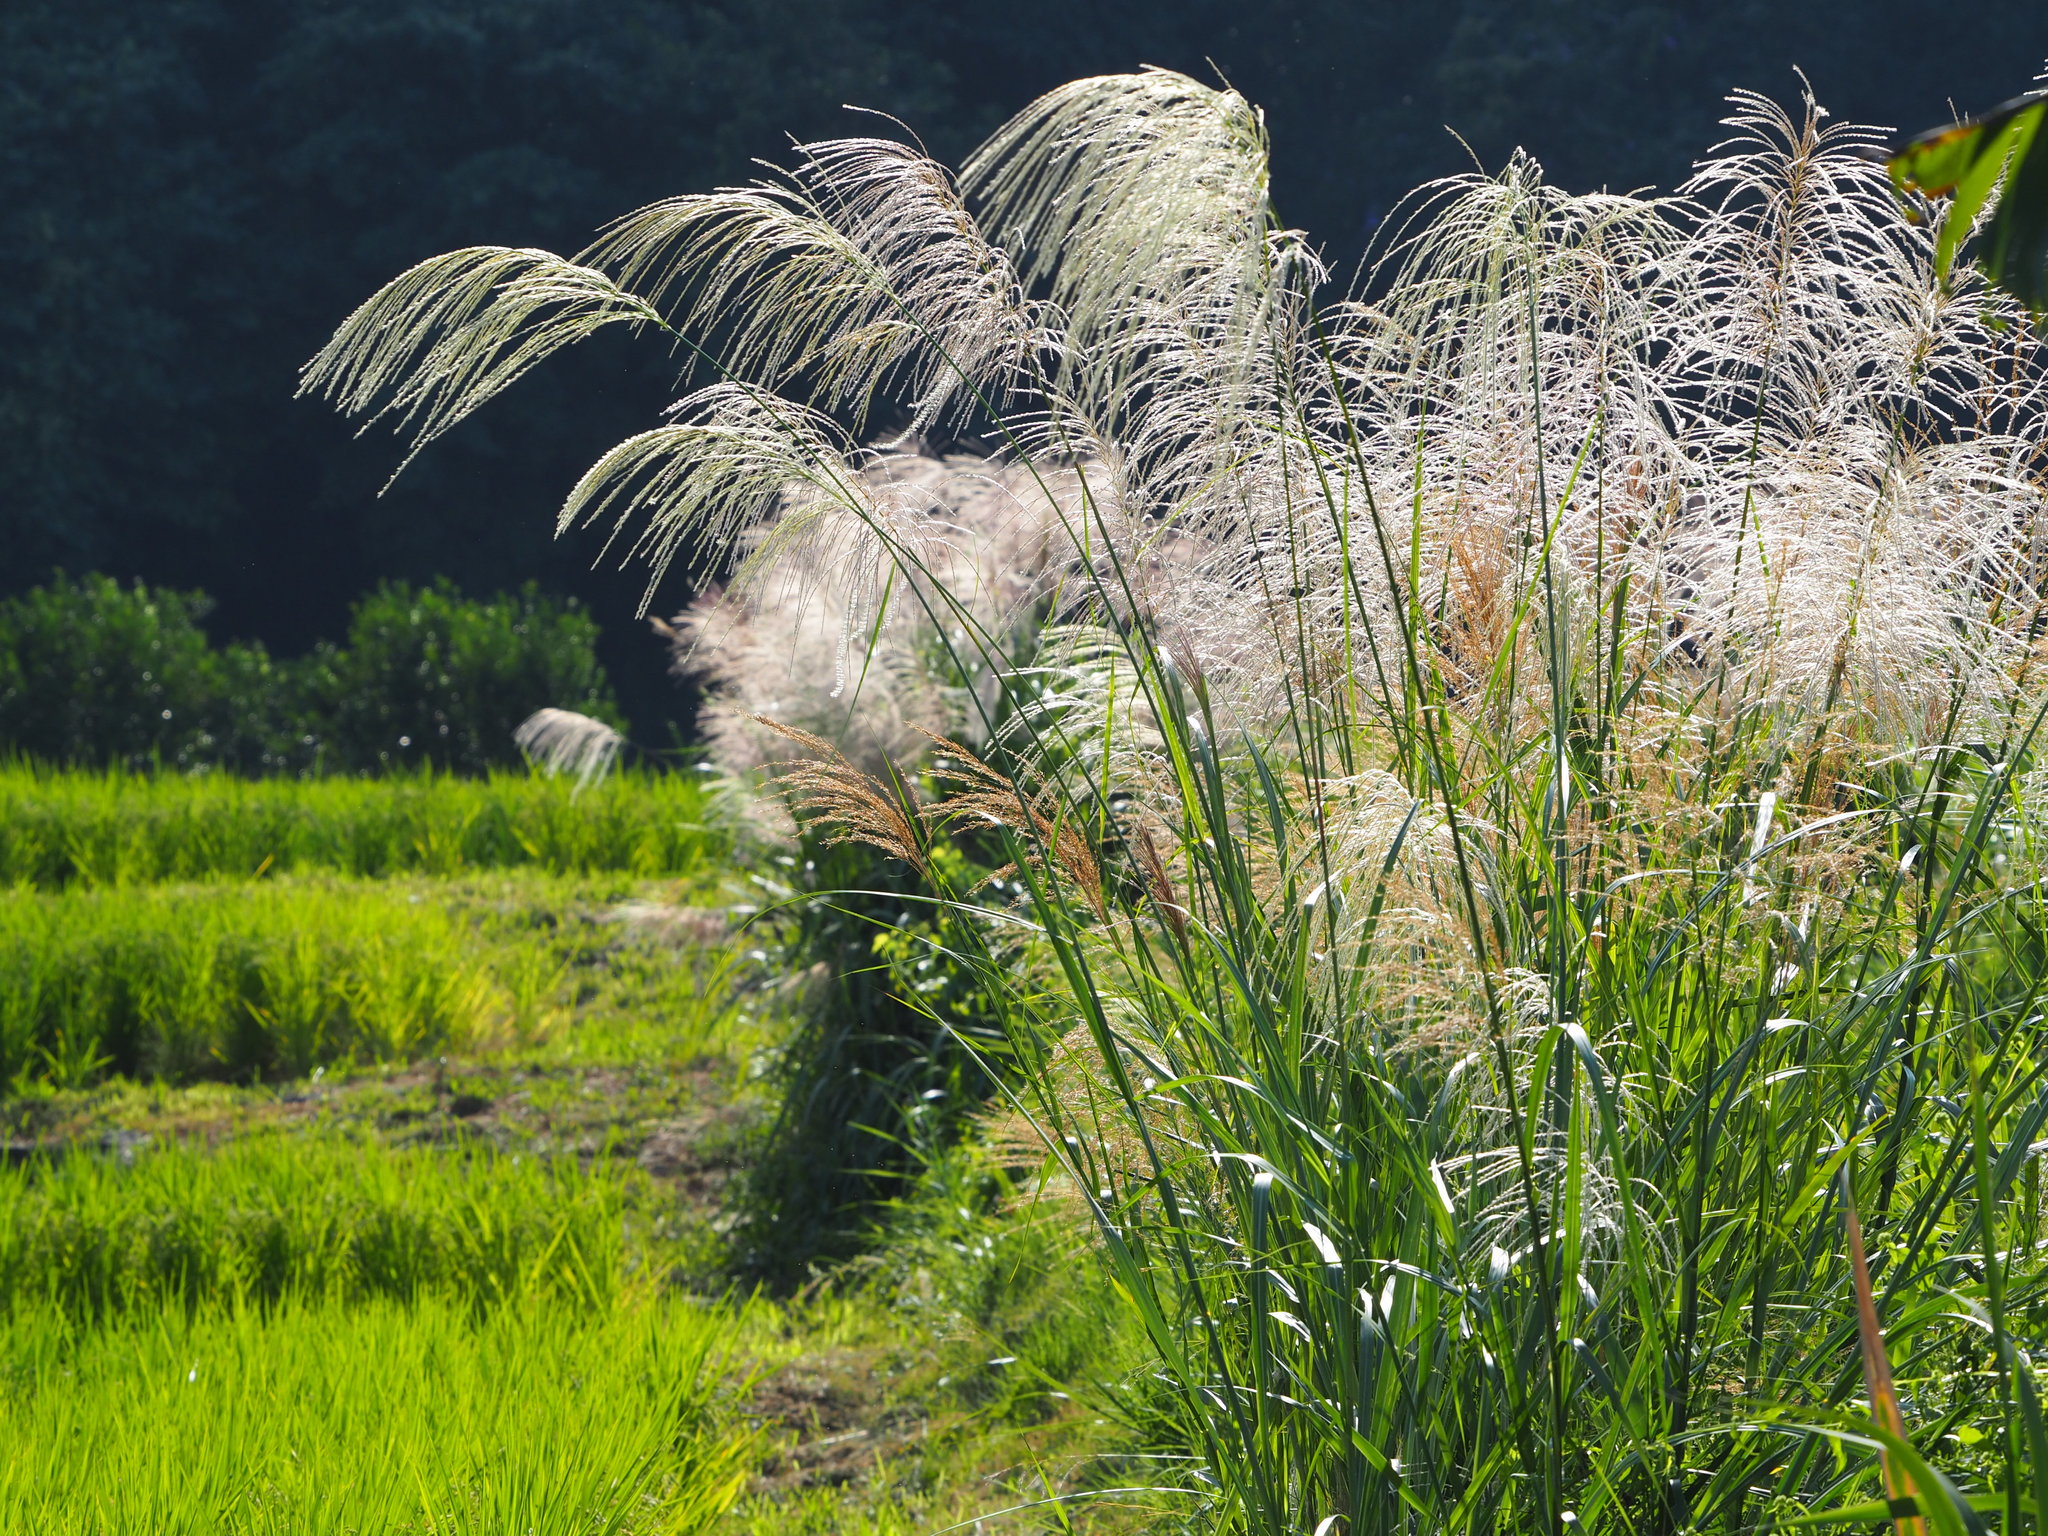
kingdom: Plantae
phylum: Tracheophyta
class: Liliopsida
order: Poales
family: Poaceae
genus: Miscanthus
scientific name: Miscanthus sinensis
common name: Chinese silvergrass
